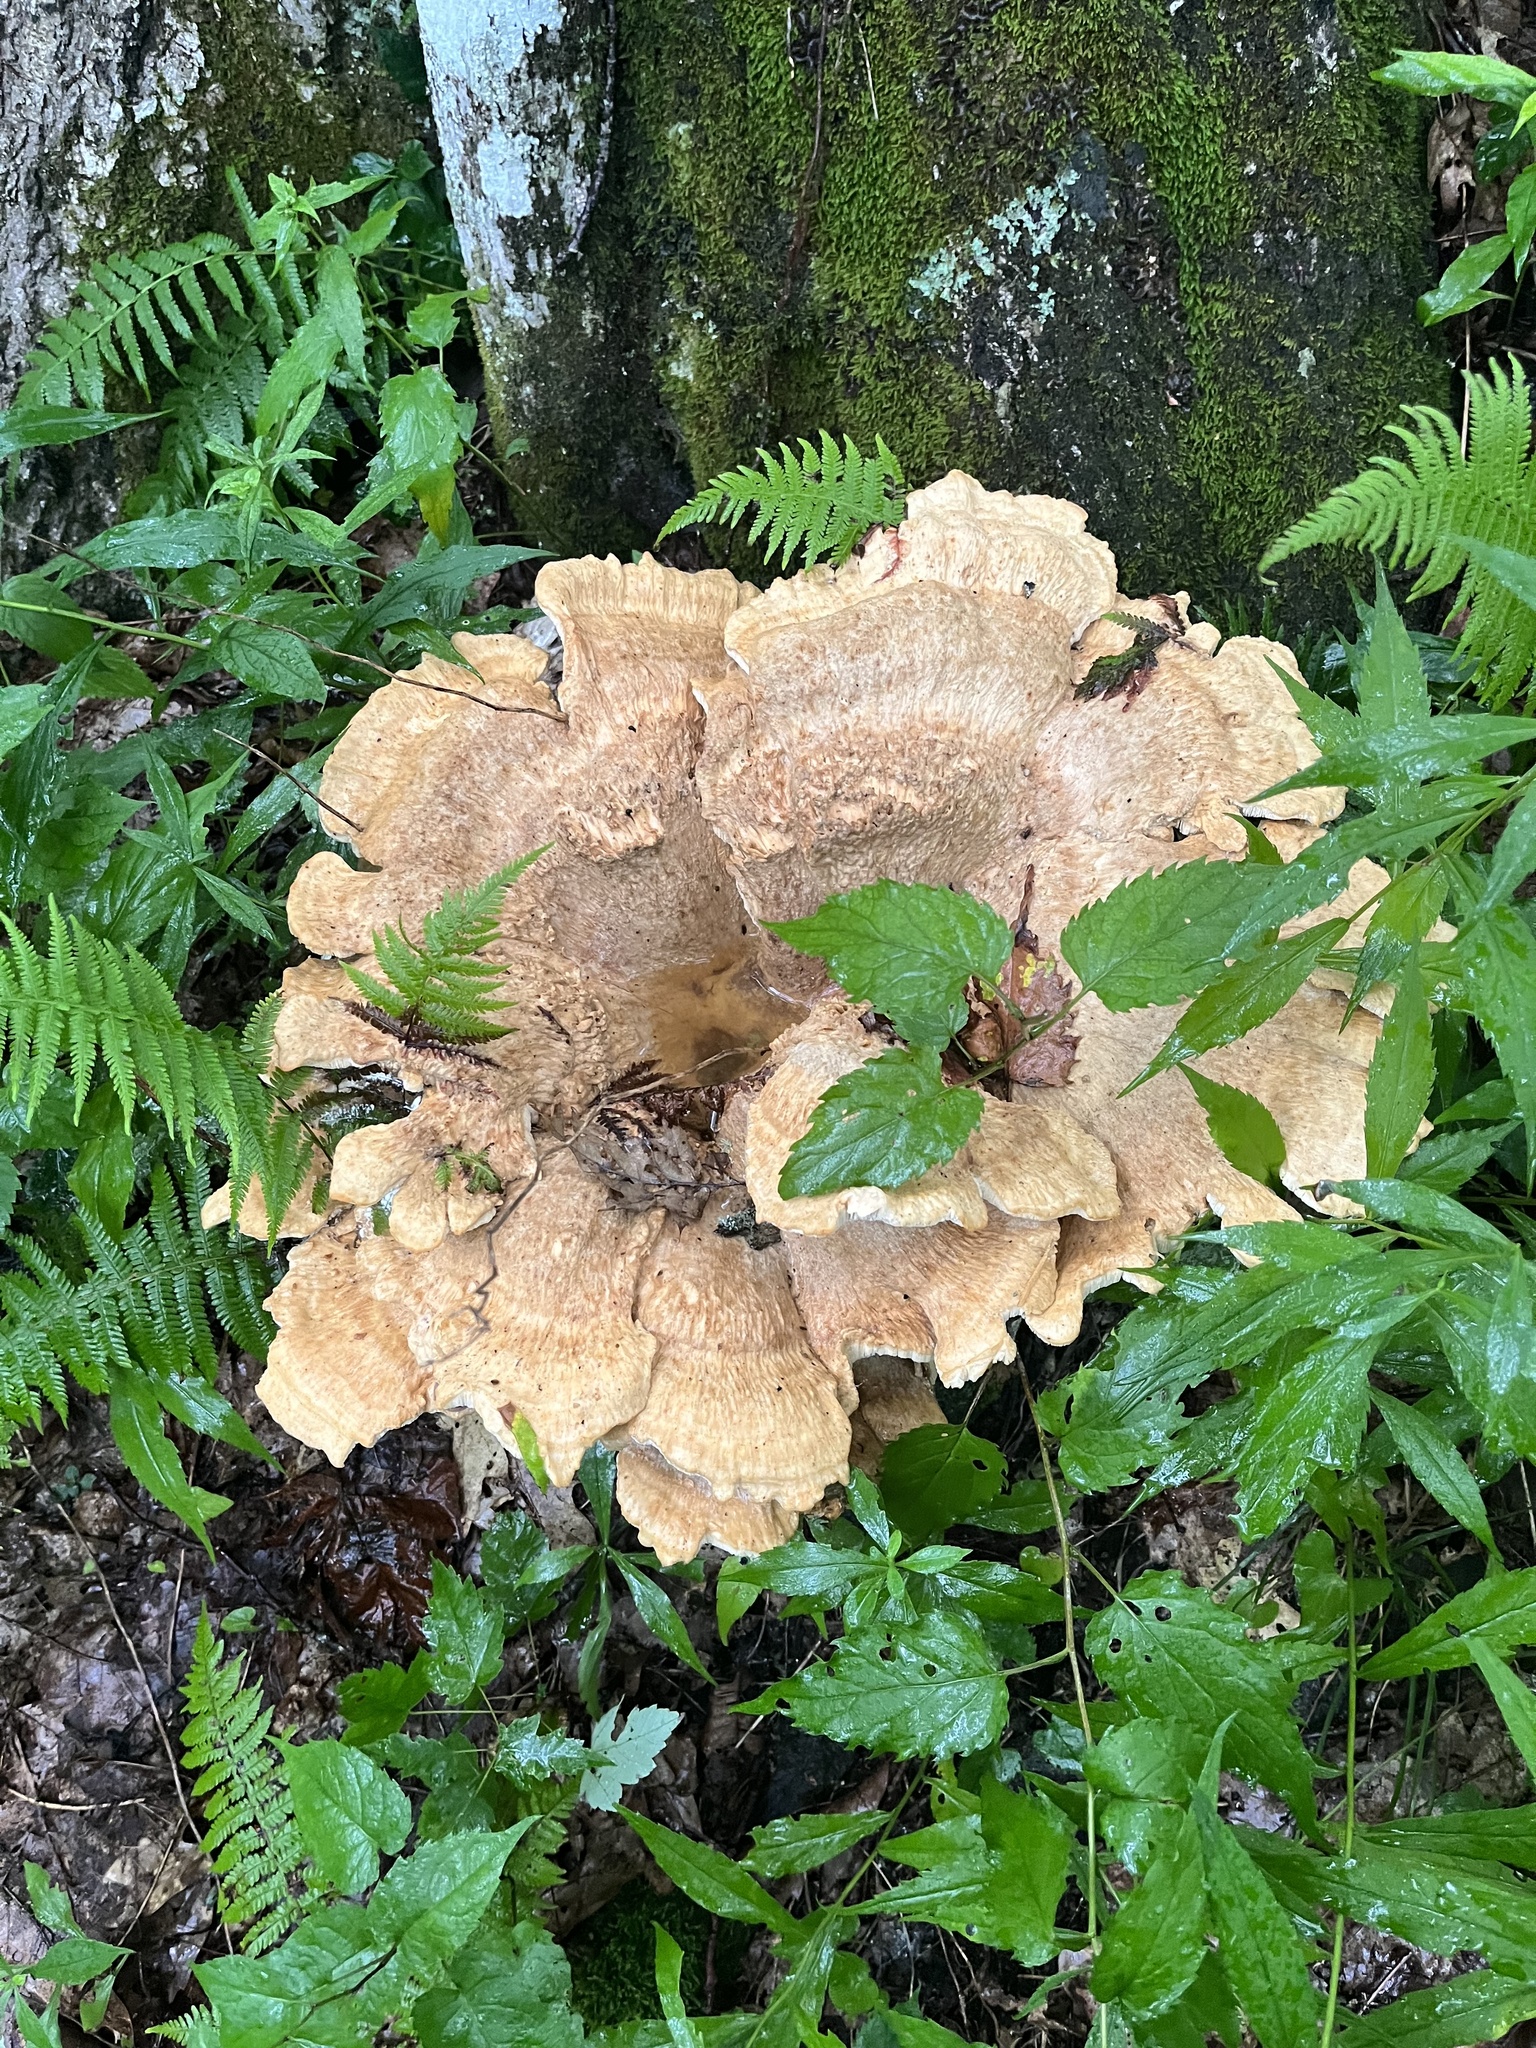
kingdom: Fungi
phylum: Basidiomycota
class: Agaricomycetes
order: Russulales
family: Bondarzewiaceae
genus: Bondarzewia
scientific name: Bondarzewia berkeleyi
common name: Berkeley's polypore
